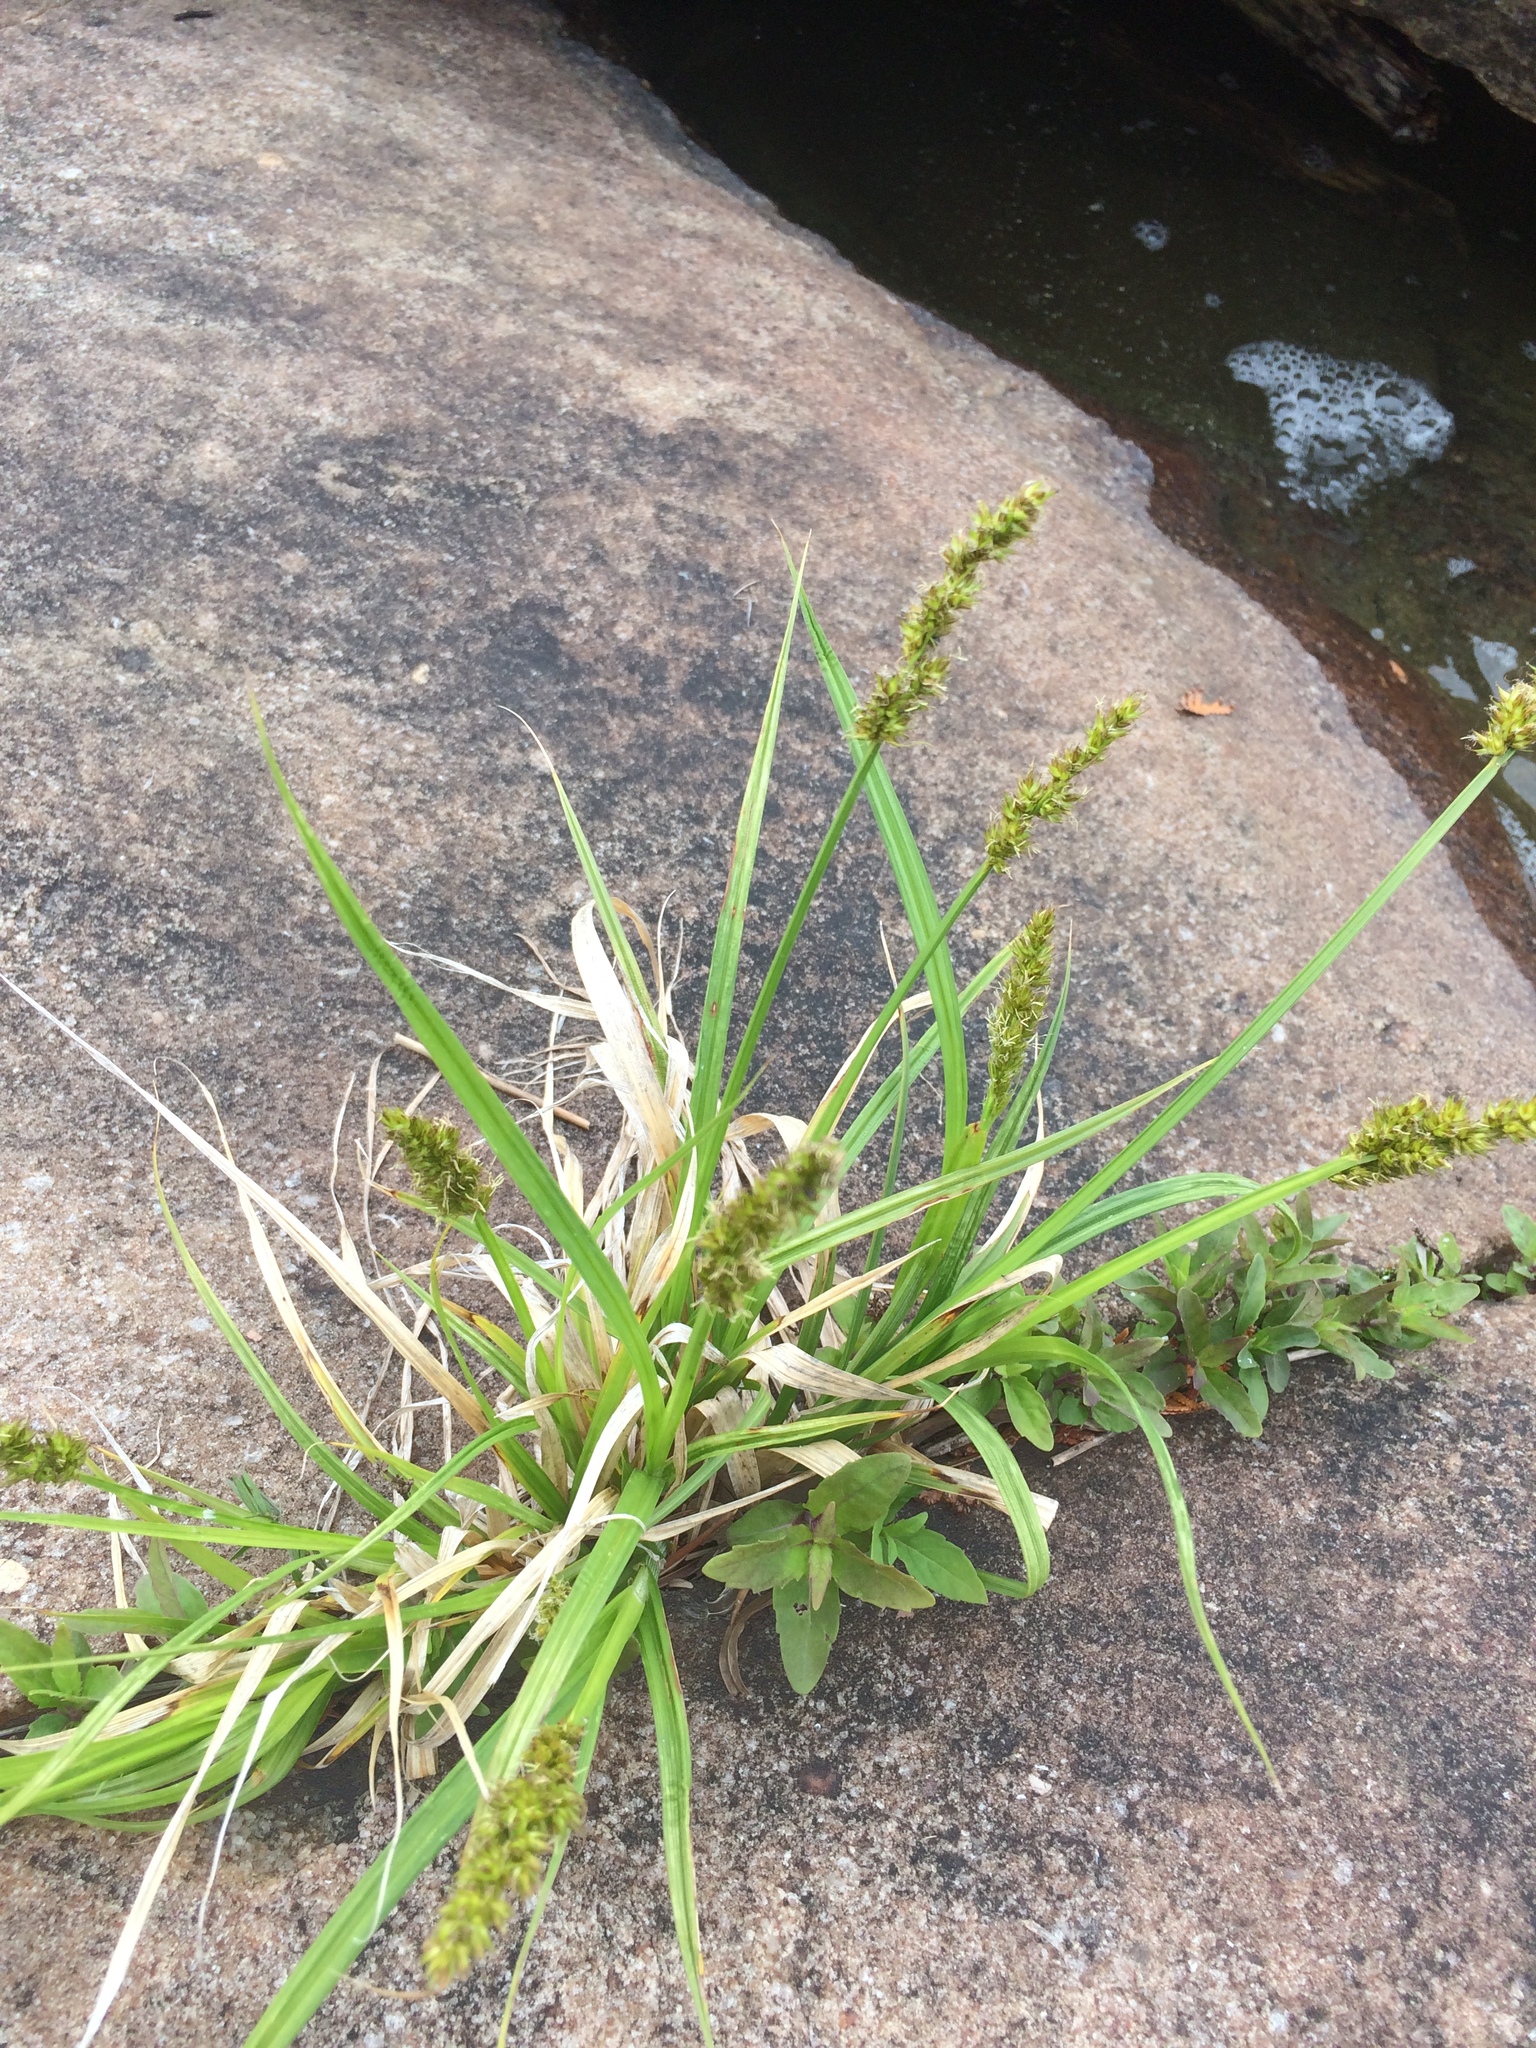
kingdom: Plantae
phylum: Tracheophyta
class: Liliopsida
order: Poales
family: Cyperaceae
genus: Carex
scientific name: Carex stipata
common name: Awl-fruited sedge
